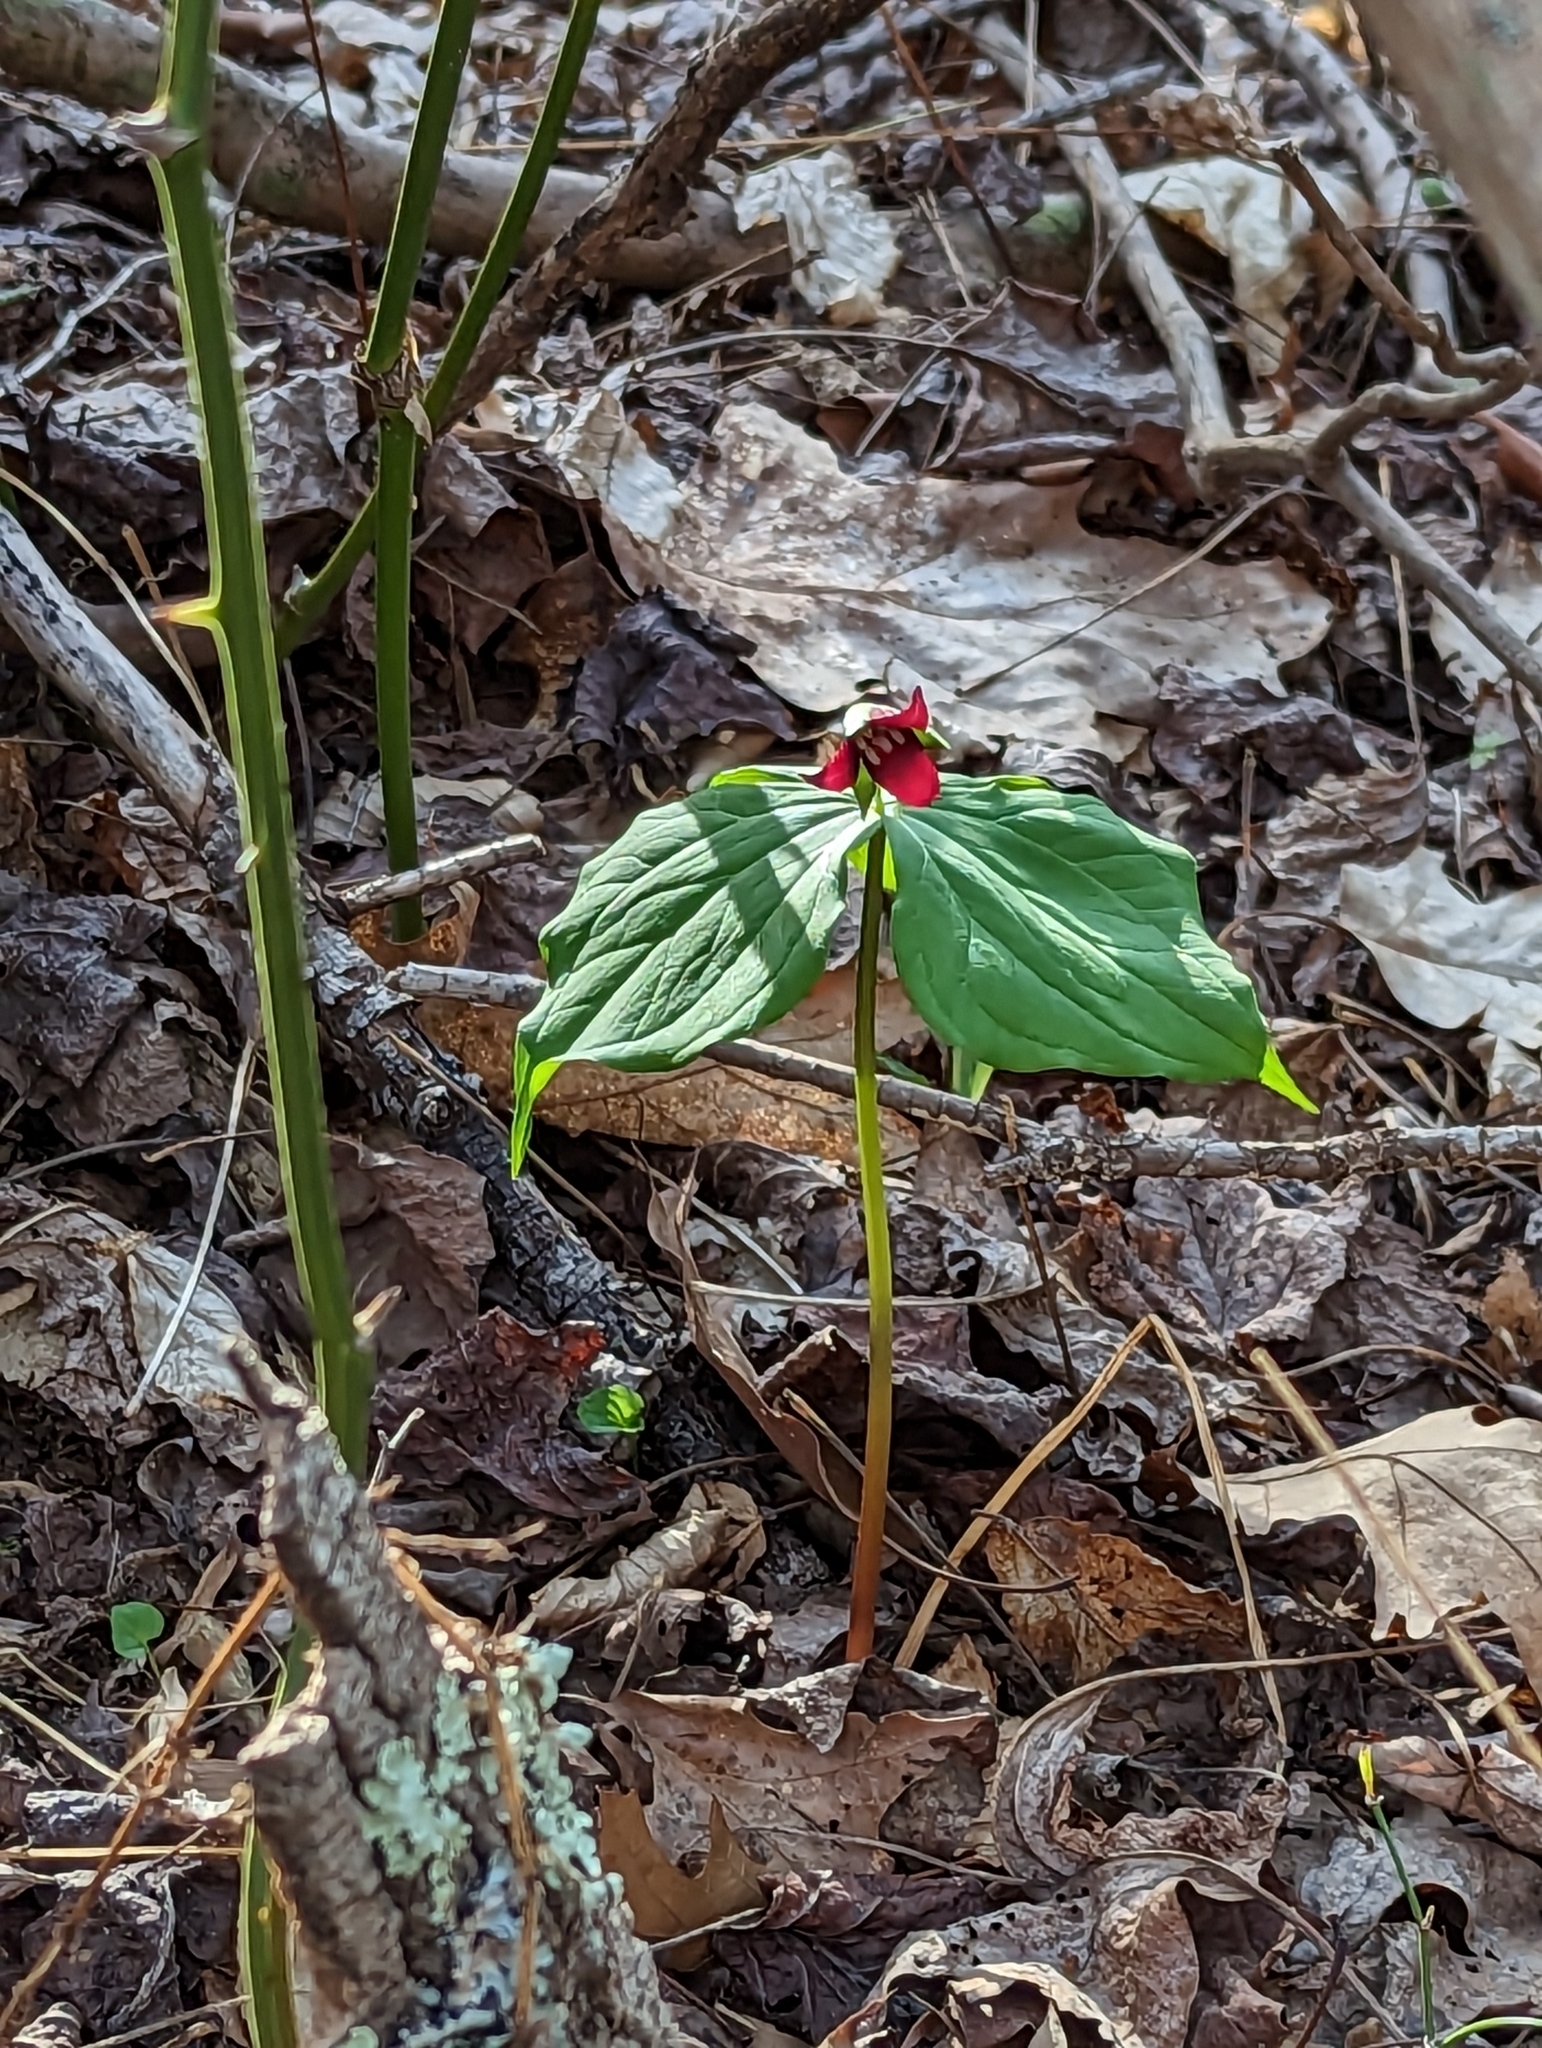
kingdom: Plantae
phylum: Tracheophyta
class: Liliopsida
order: Liliales
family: Melanthiaceae
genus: Trillium
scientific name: Trillium erectum
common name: Purple trillium
